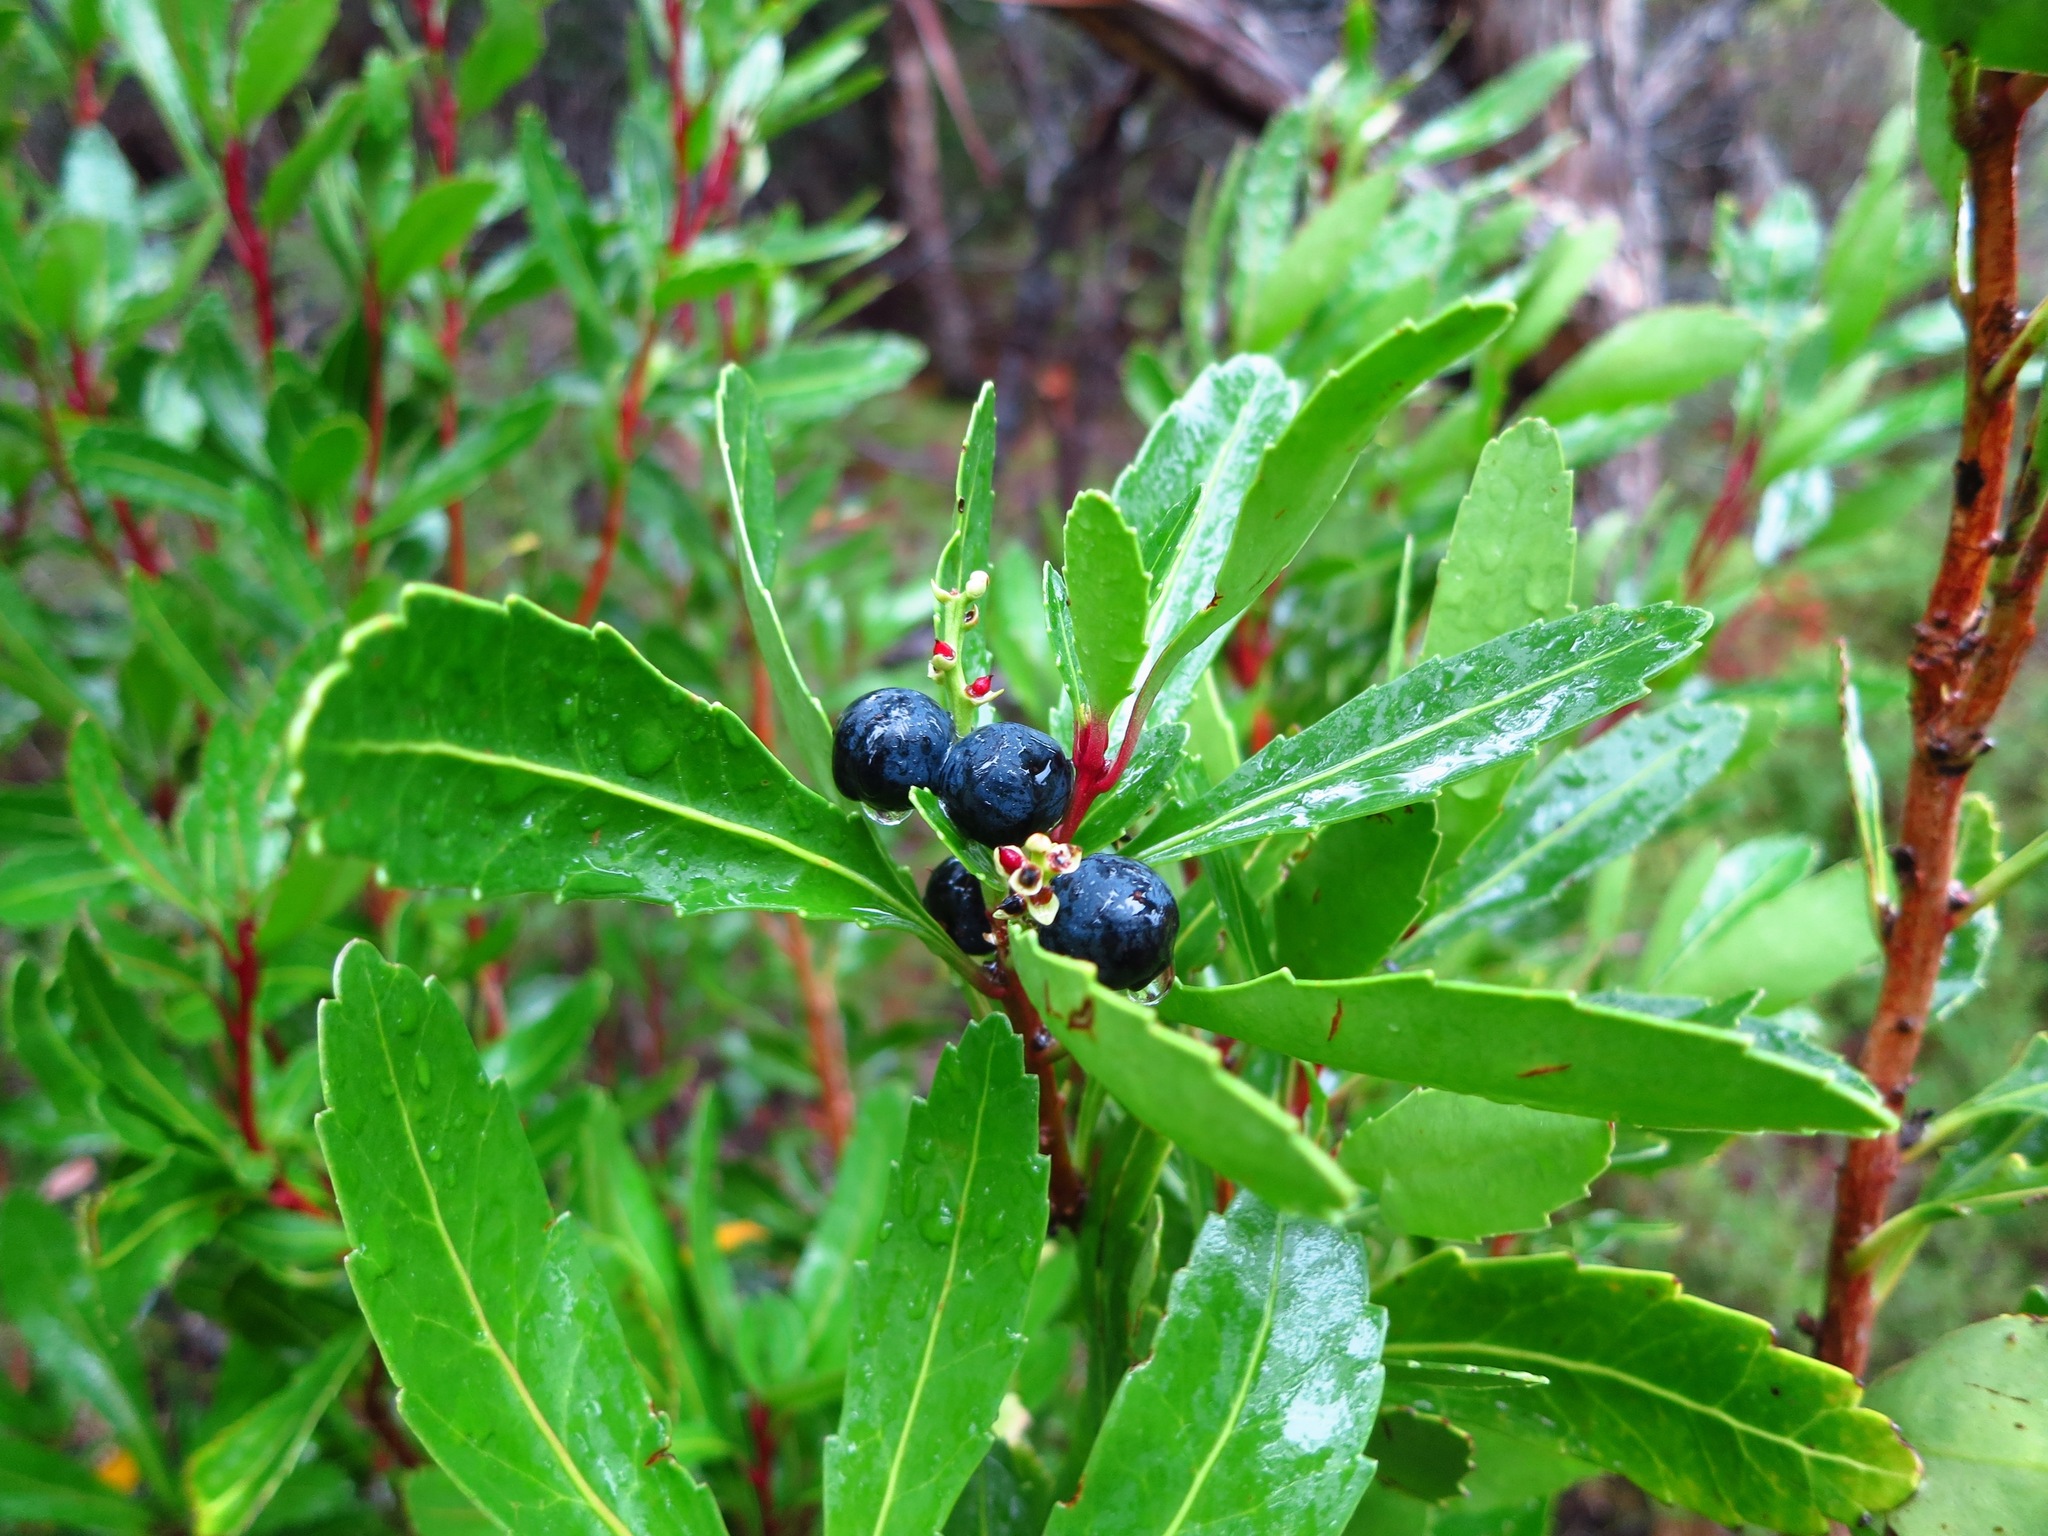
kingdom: Plantae
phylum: Tracheophyta
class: Magnoliopsida
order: Proteales
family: Proteaceae
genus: Cenarrhenes
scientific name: Cenarrhenes nitida
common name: Native plum
